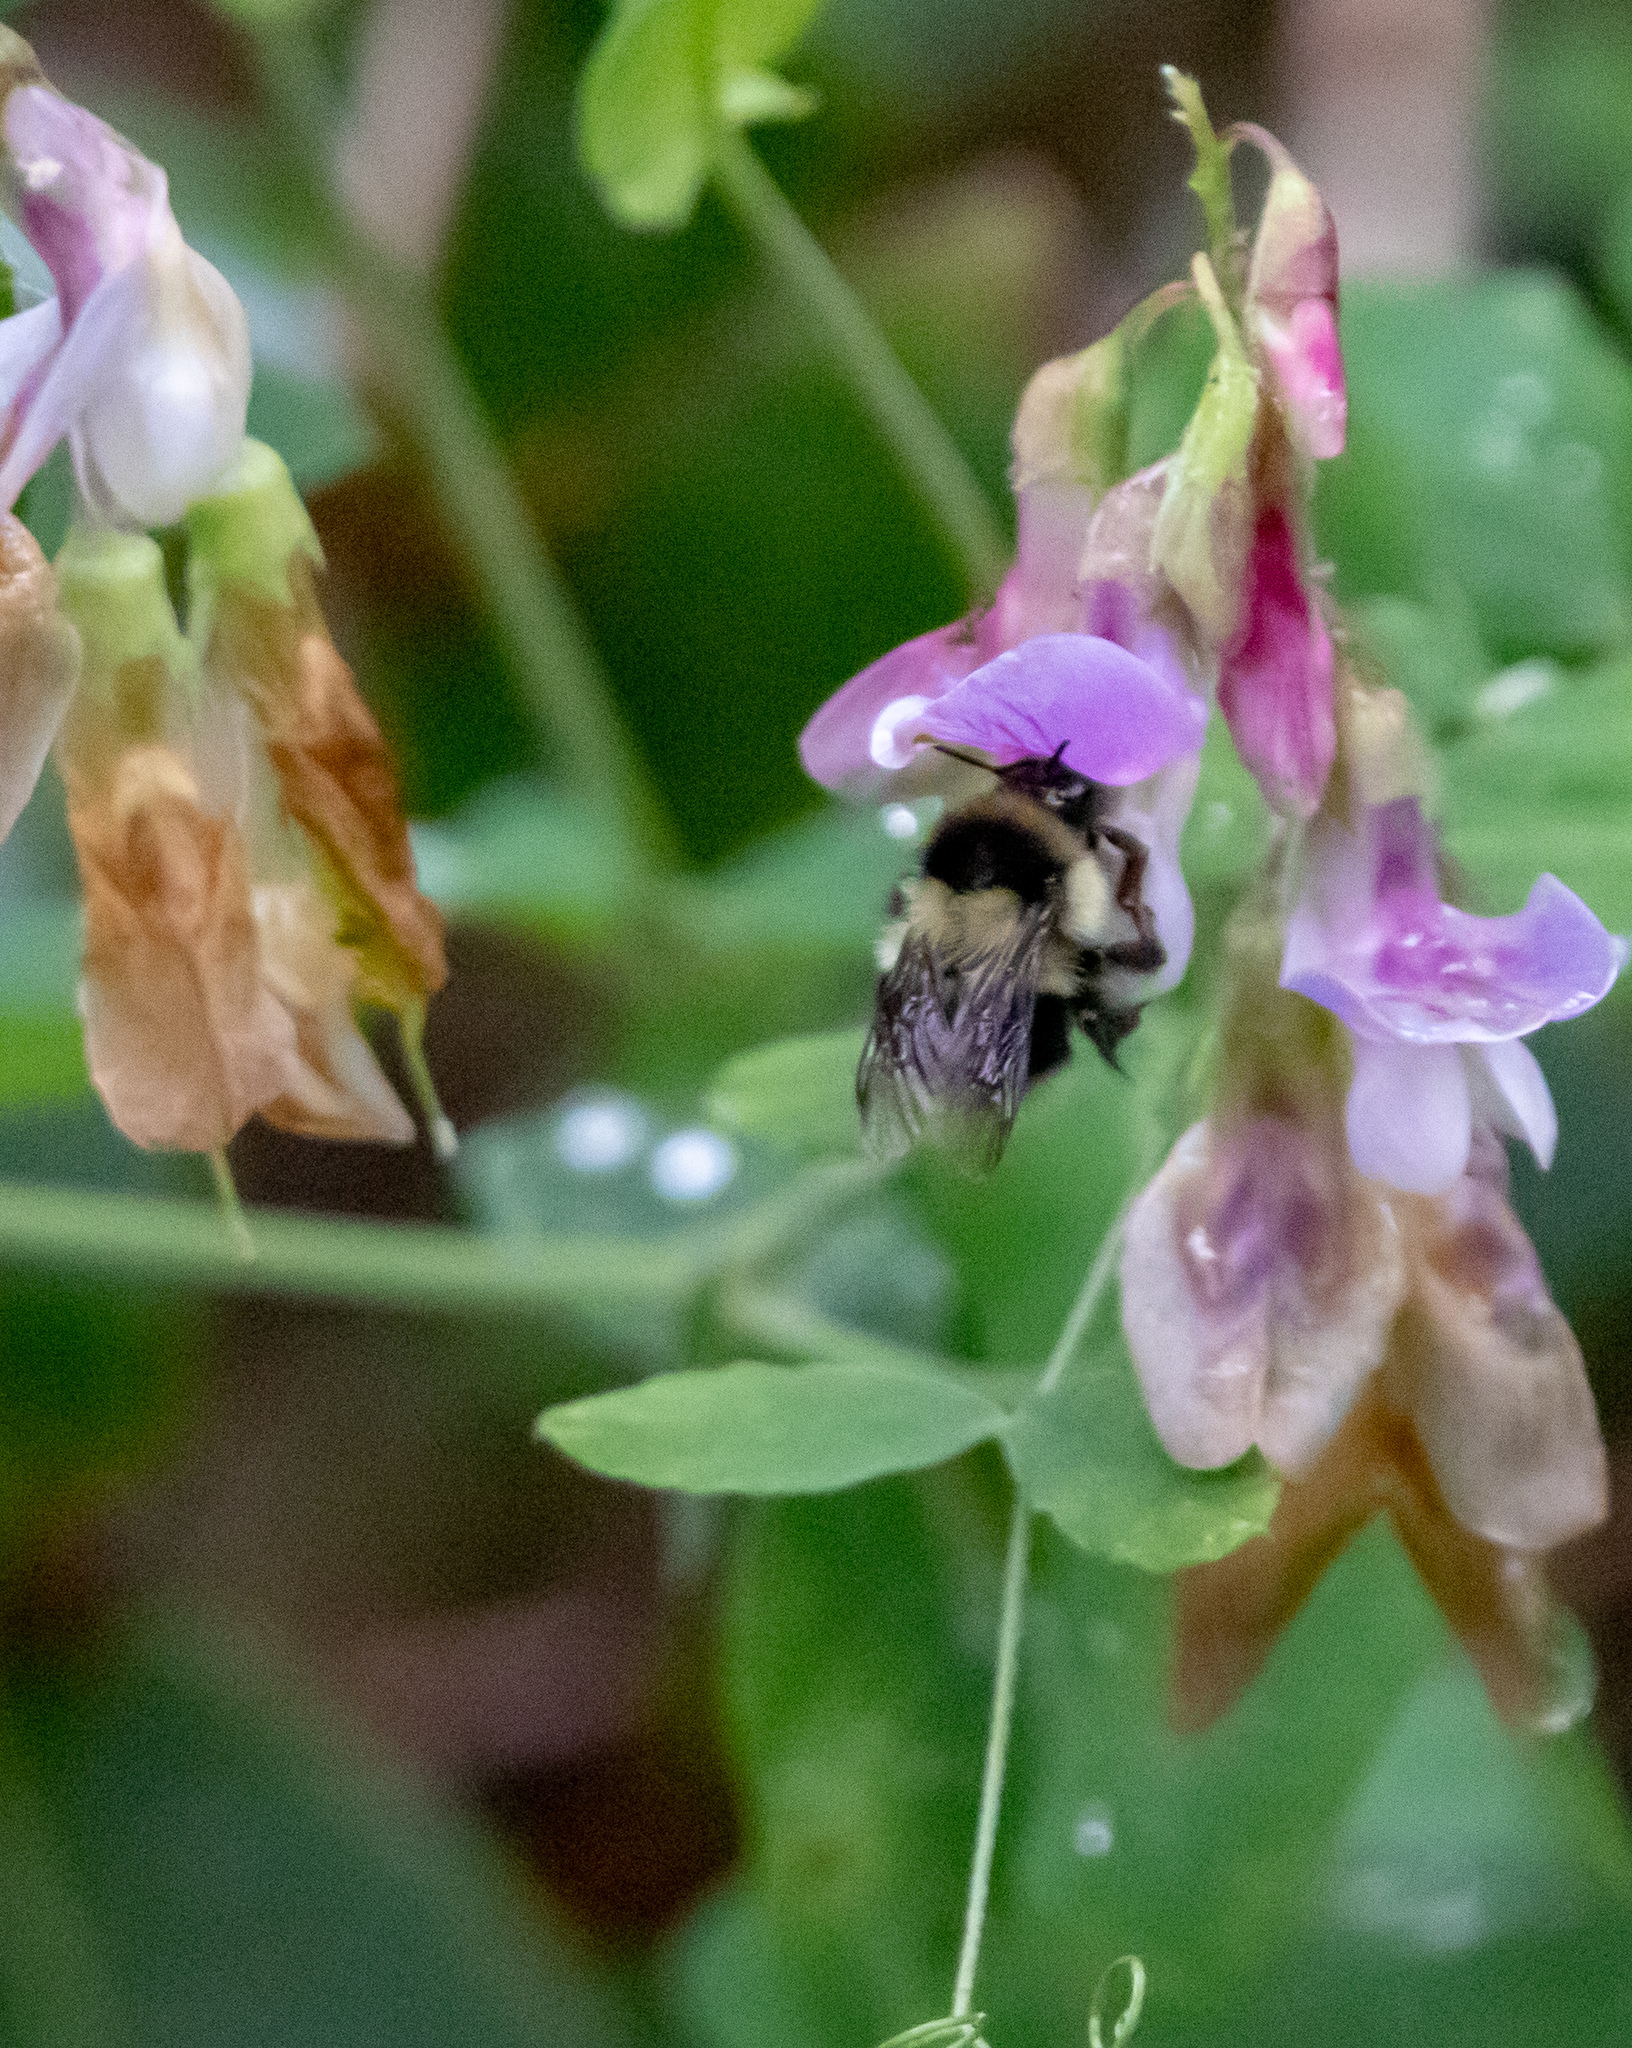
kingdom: Animalia
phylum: Arthropoda
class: Insecta
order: Hymenoptera
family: Apidae
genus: Bombus
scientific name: Bombus melanopygus
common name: Black tail bumble bee
